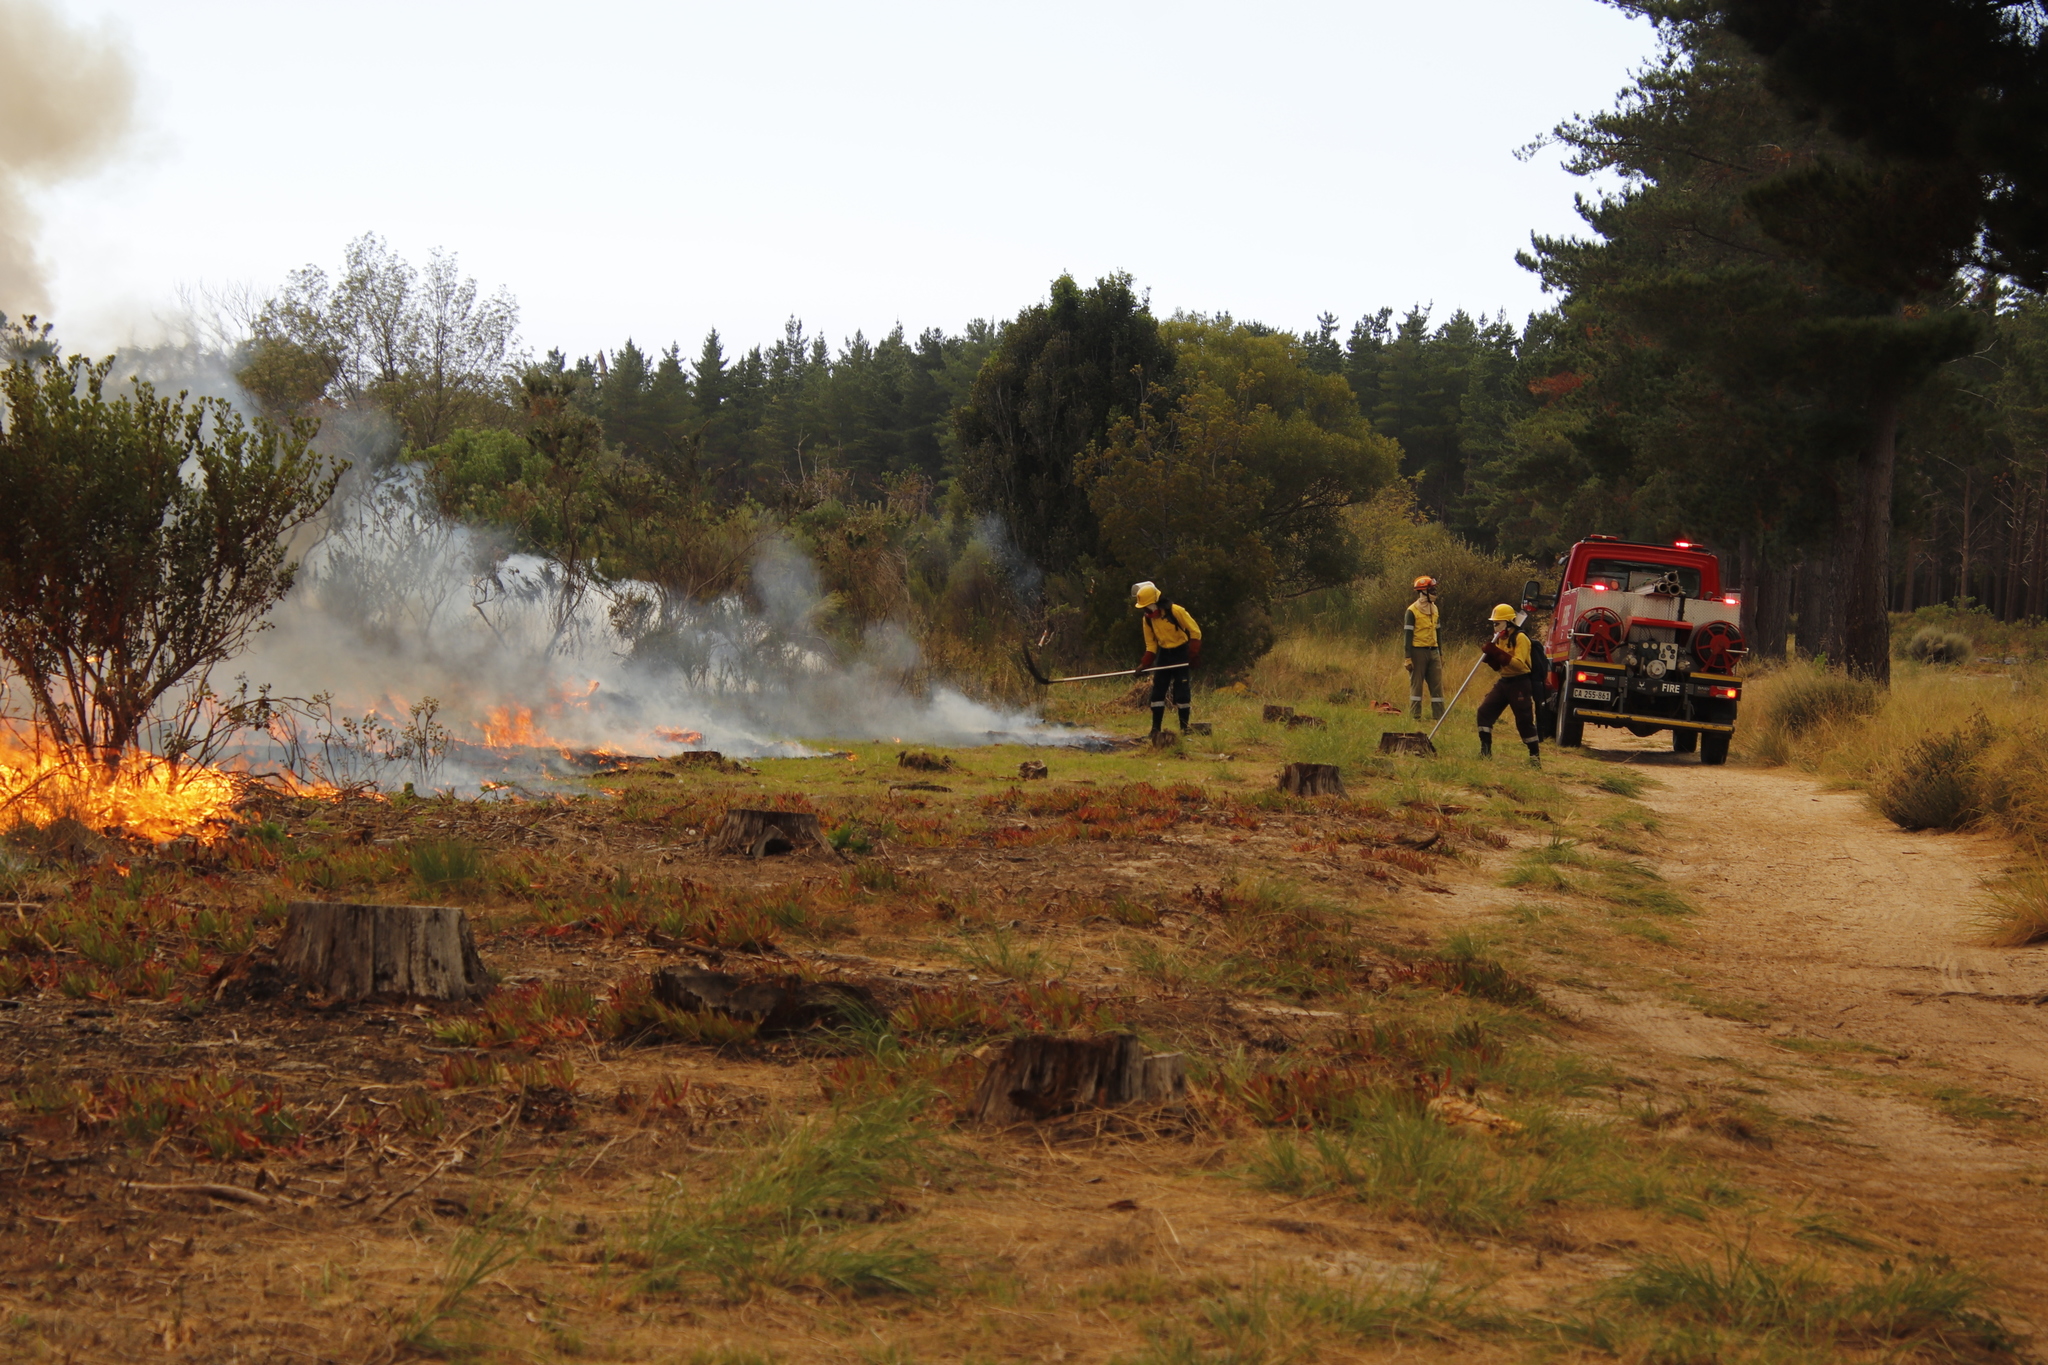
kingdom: Plantae
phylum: Tracheophyta
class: Liliopsida
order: Poales
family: Poaceae
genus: Eragrostis
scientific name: Eragrostis curvula
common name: African love-grass
